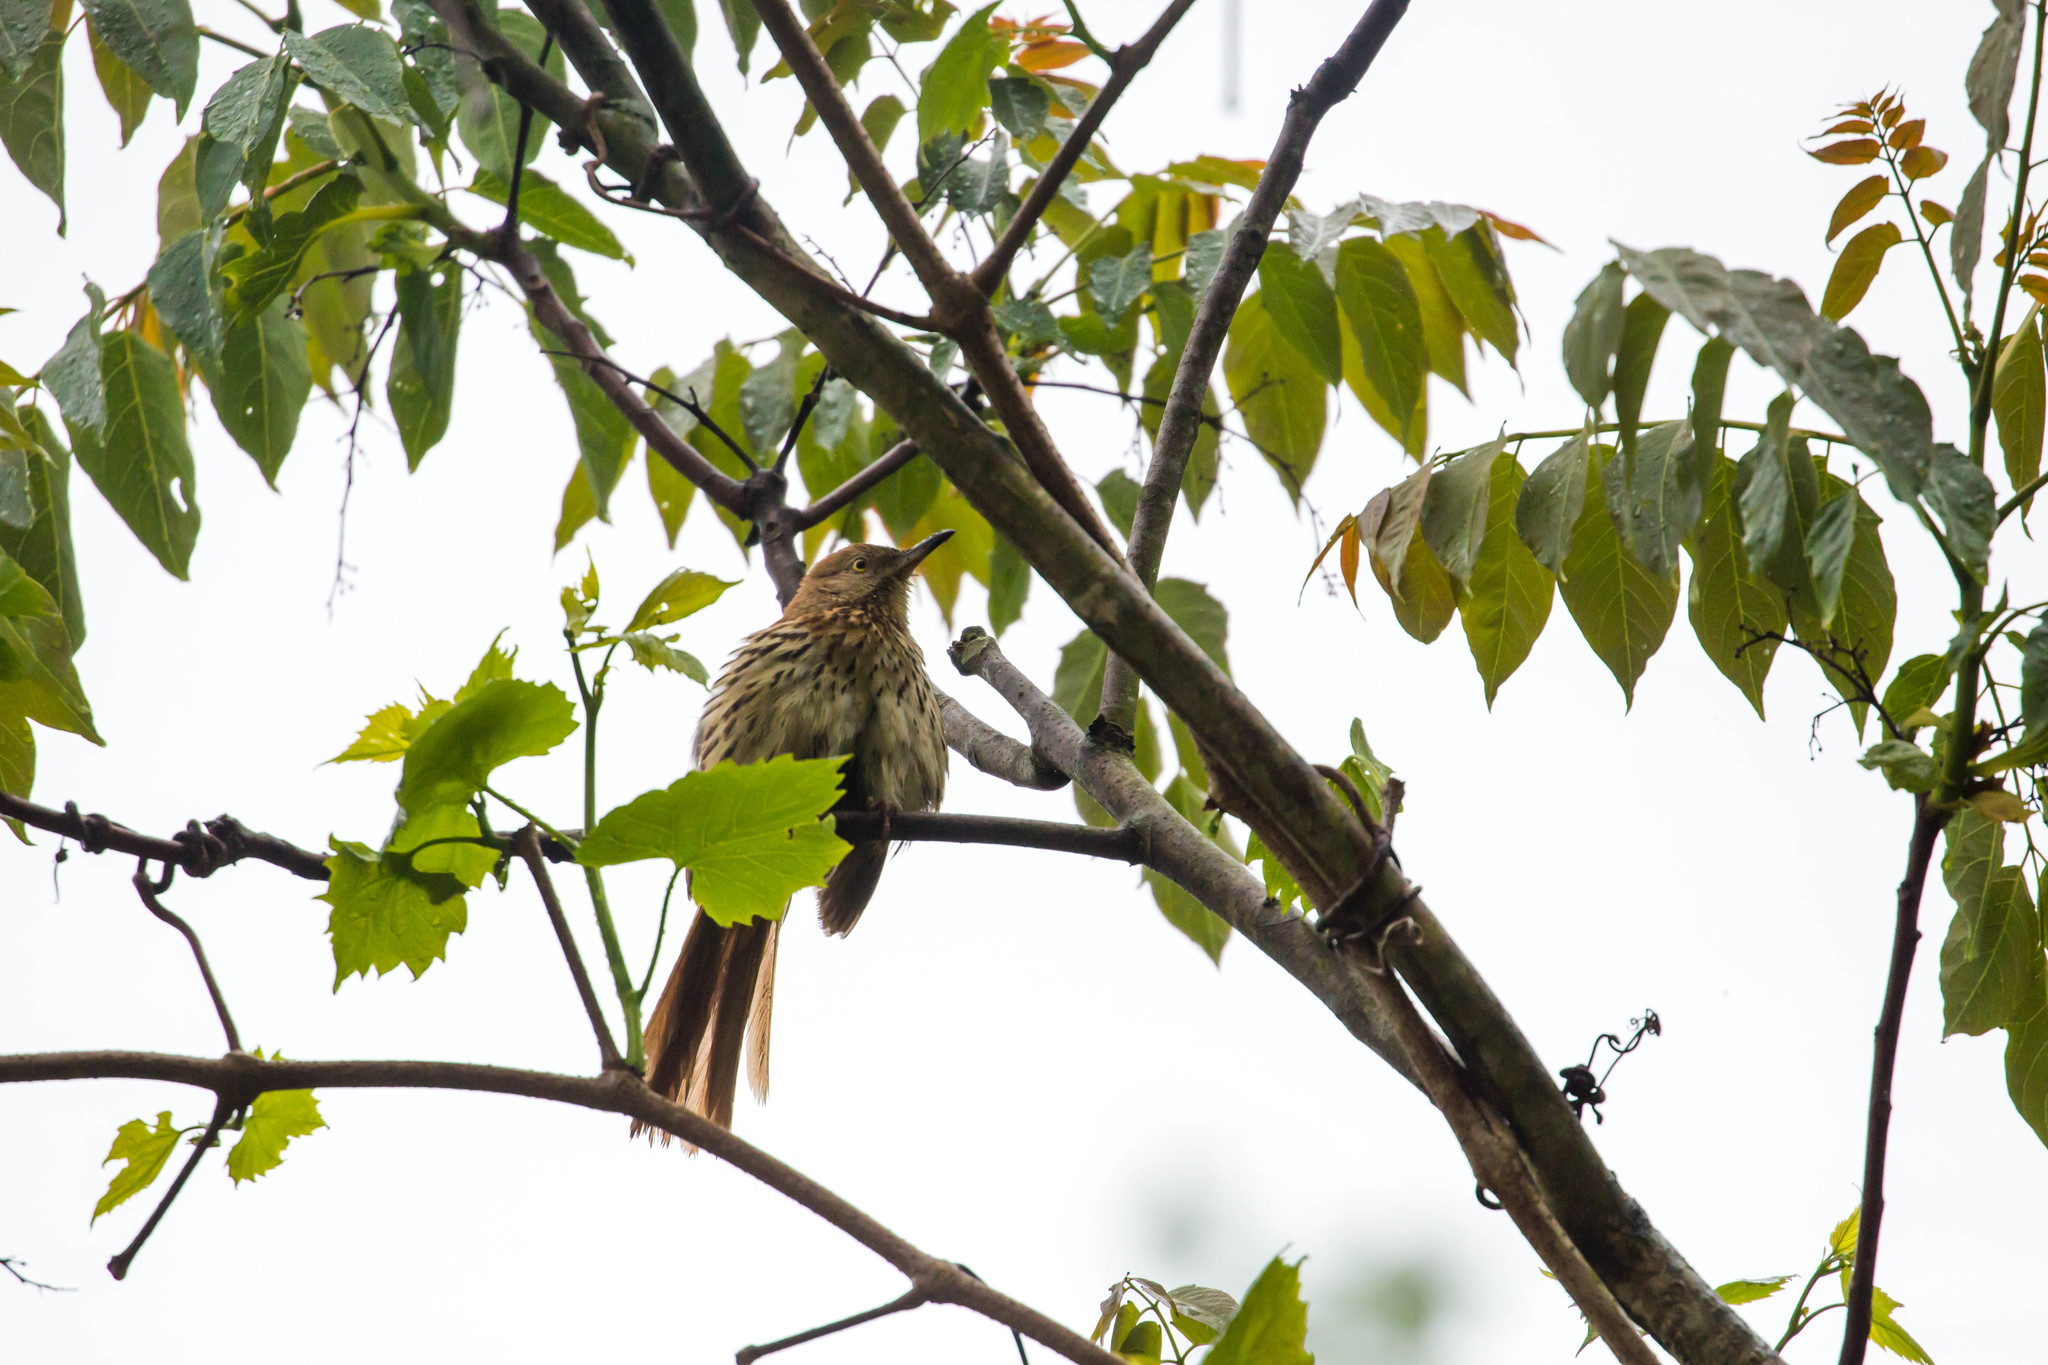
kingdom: Animalia
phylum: Chordata
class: Aves
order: Passeriformes
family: Mimidae
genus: Toxostoma
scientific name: Toxostoma rufum
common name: Brown thrasher
